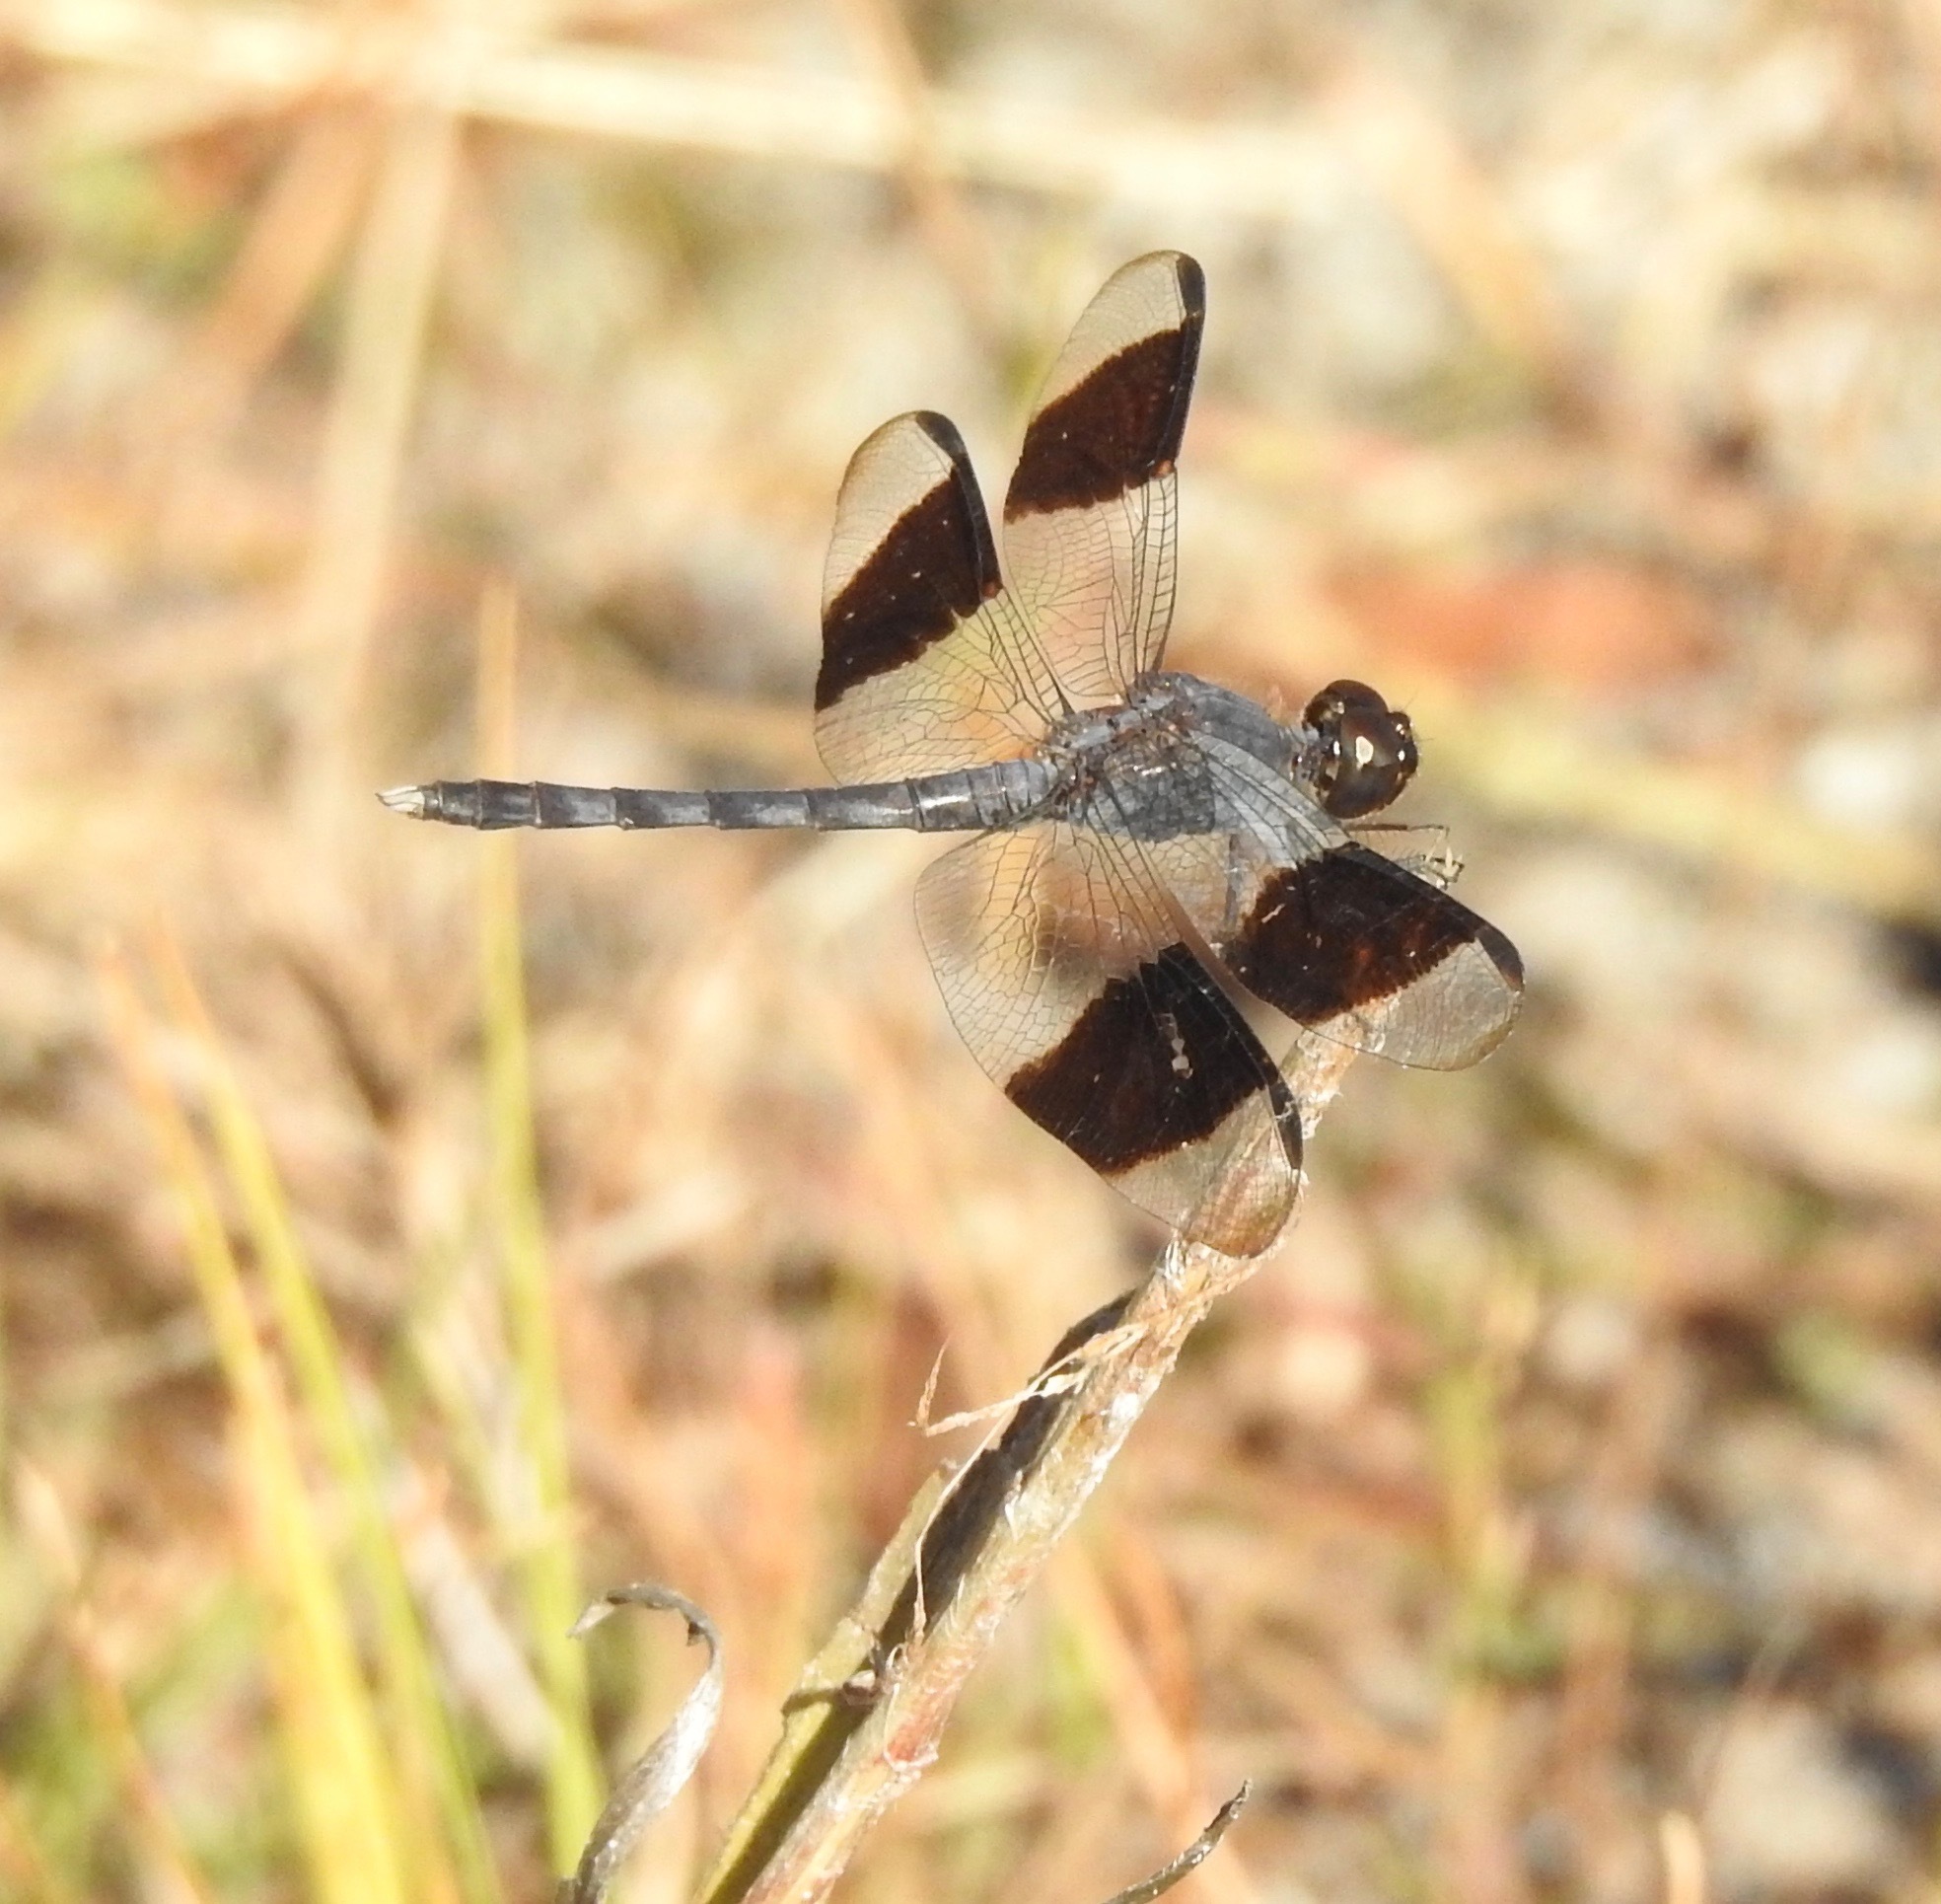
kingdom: Animalia
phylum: Arthropoda
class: Insecta
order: Odonata
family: Libellulidae
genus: Erythrodiplax
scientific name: Erythrodiplax umbrata
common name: Band-winged dragonlet
